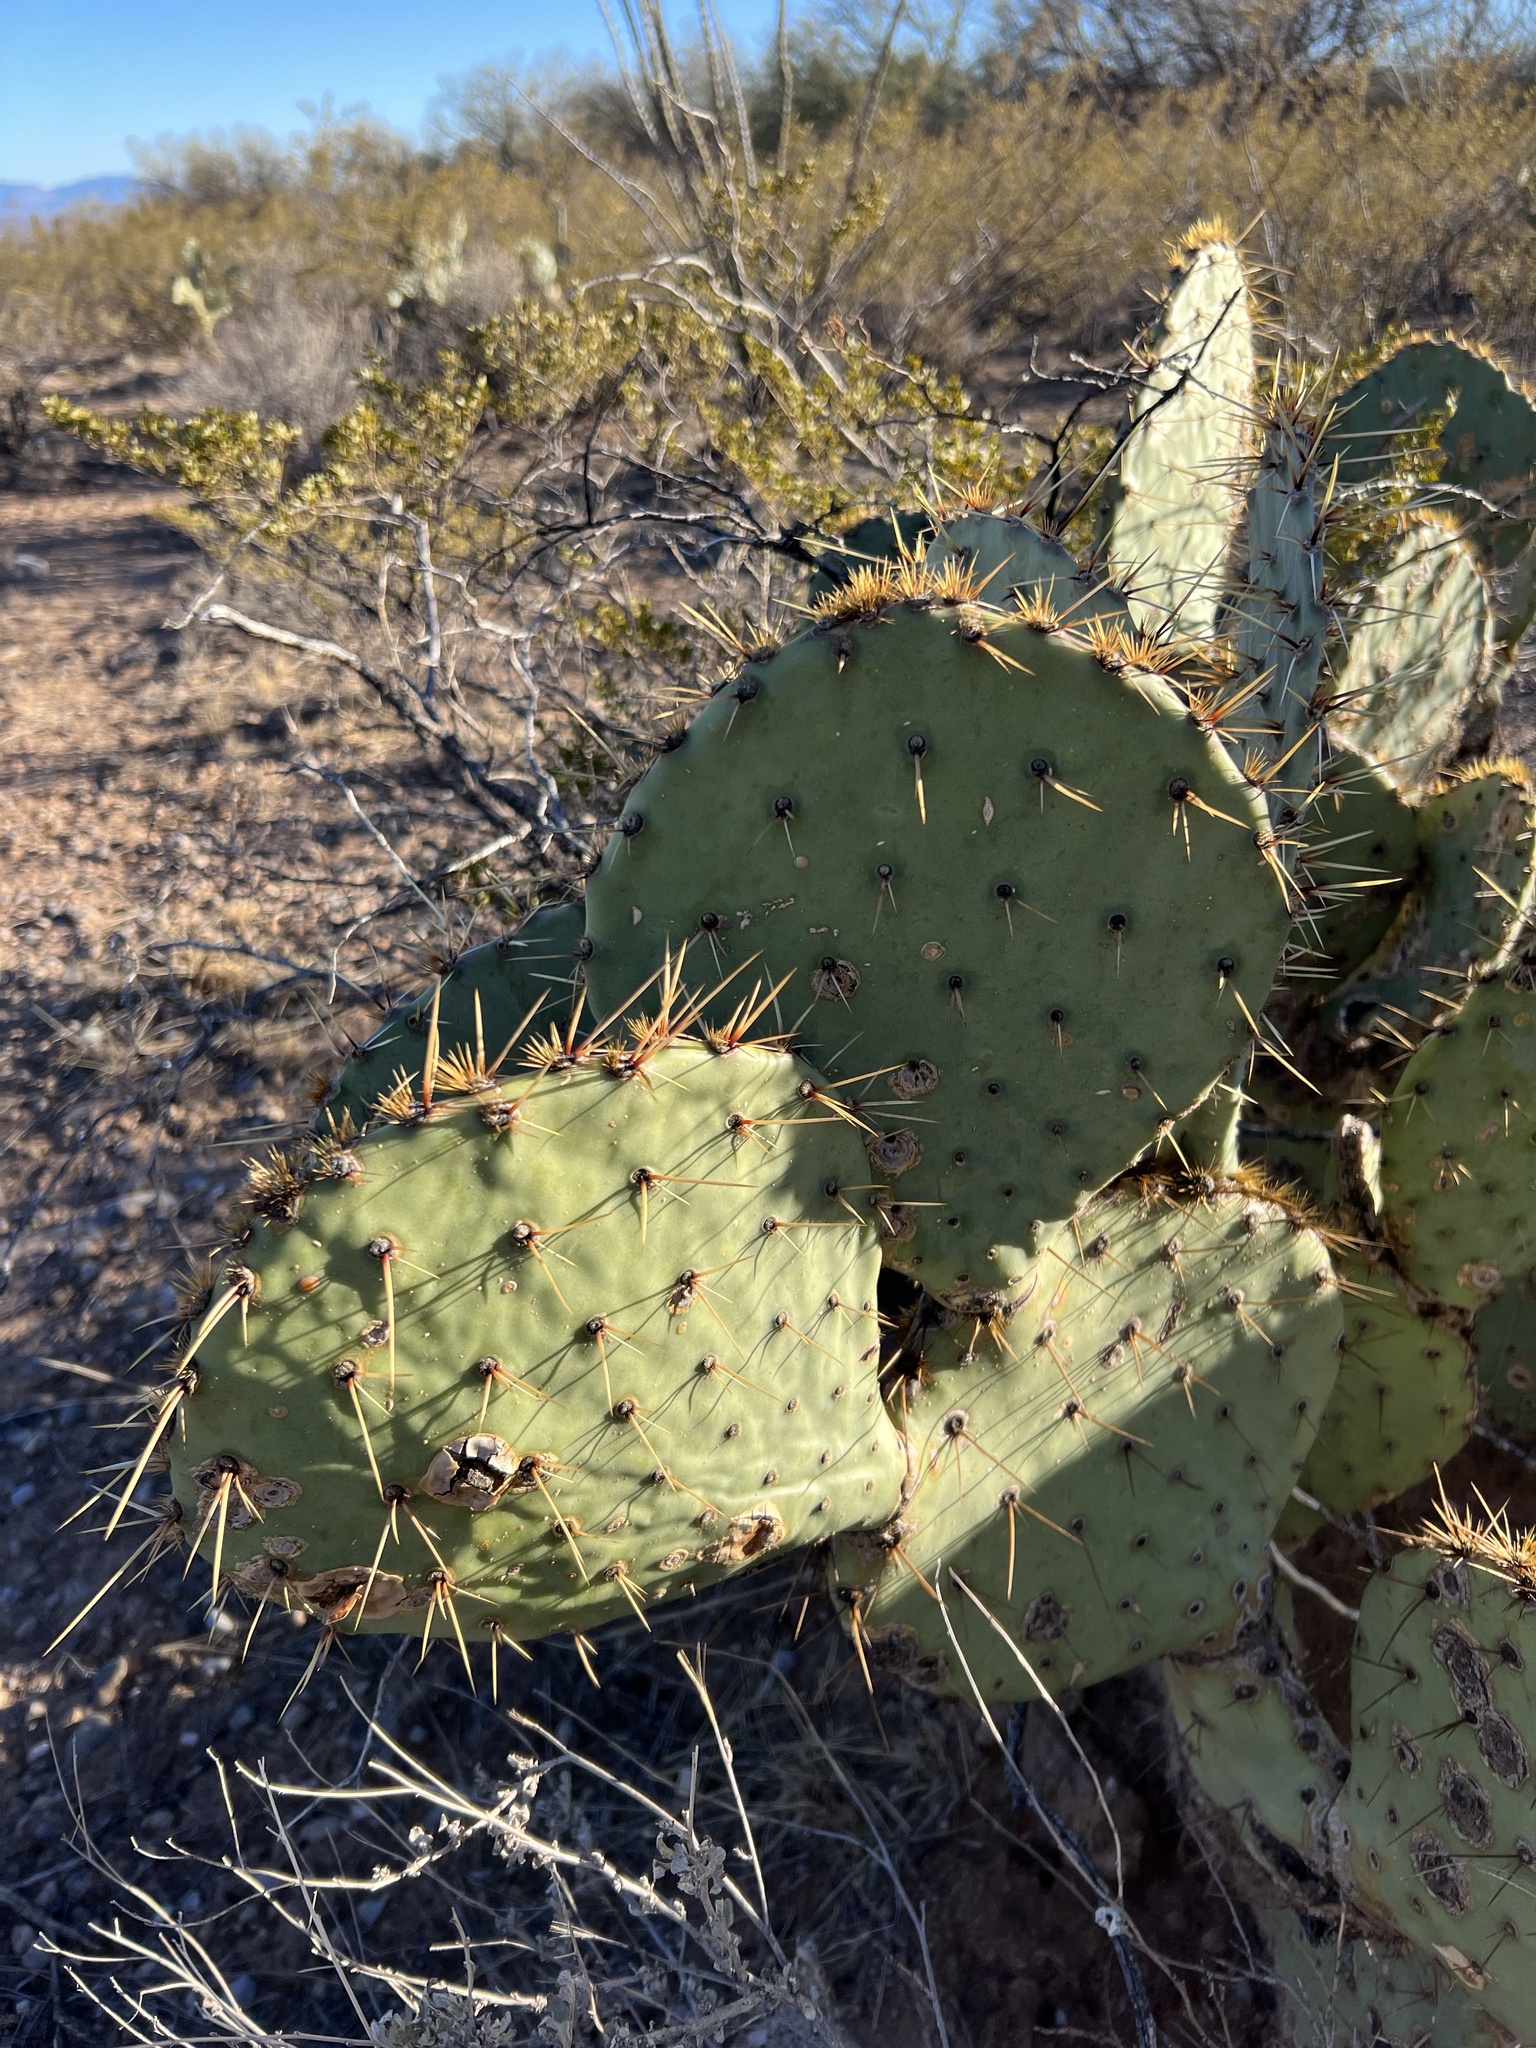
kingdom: Plantae
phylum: Tracheophyta
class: Magnoliopsida
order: Caryophyllales
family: Cactaceae
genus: Opuntia
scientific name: Opuntia engelmannii
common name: Cactus-apple
